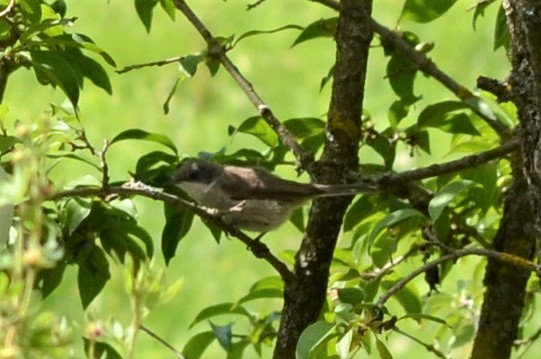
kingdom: Animalia
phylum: Chordata
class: Aves
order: Passeriformes
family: Sylviidae
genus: Sylvia
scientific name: Sylvia curruca
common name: Lesser whitethroat
